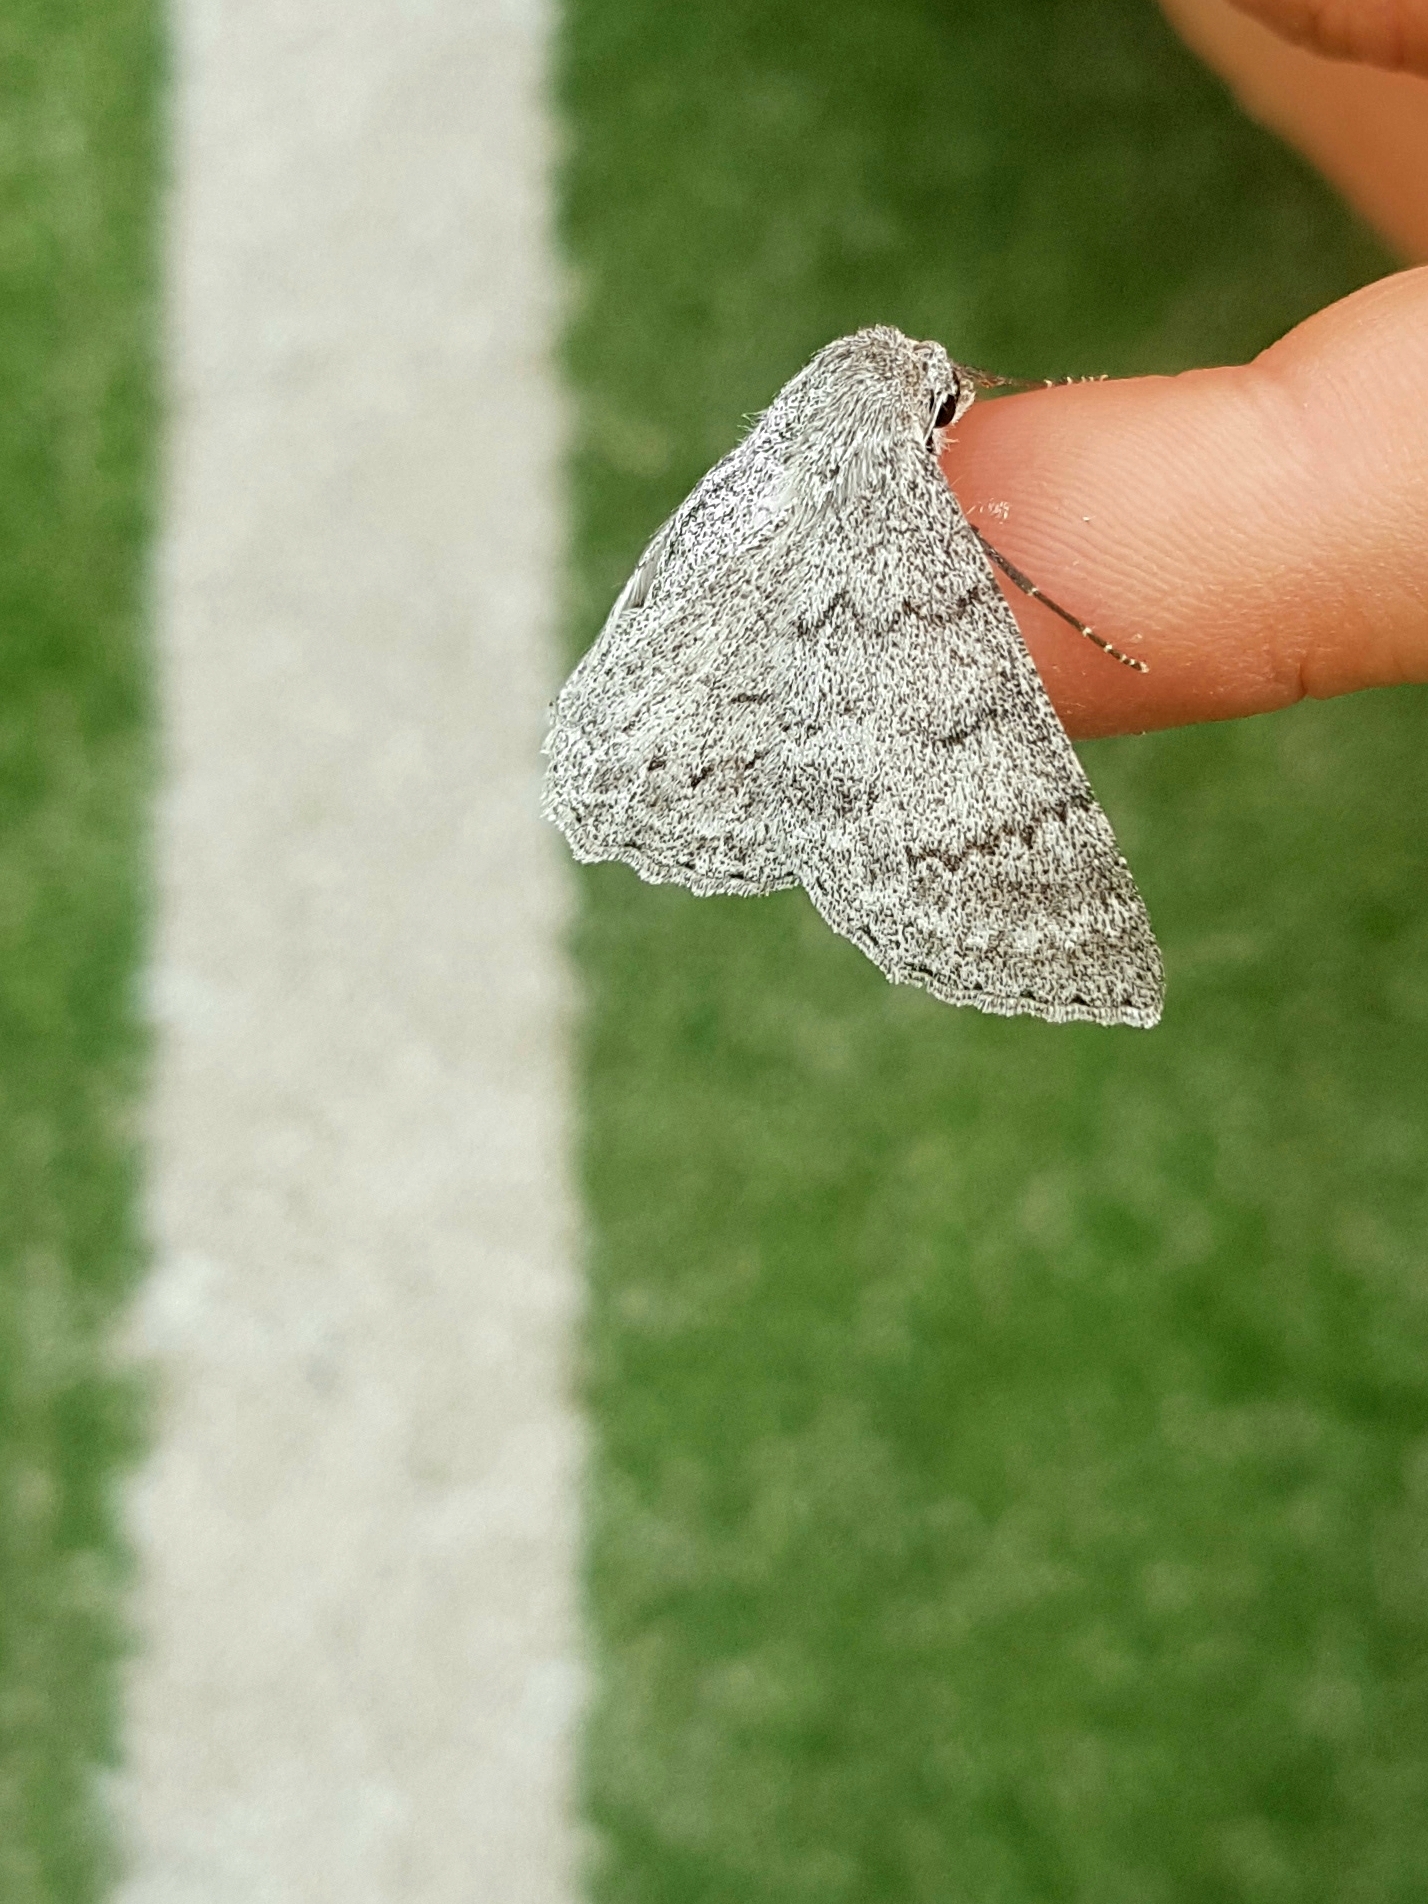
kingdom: Animalia
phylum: Arthropoda
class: Insecta
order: Lepidoptera
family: Geometridae
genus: Crypsiphona
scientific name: Crypsiphona ocultaria
